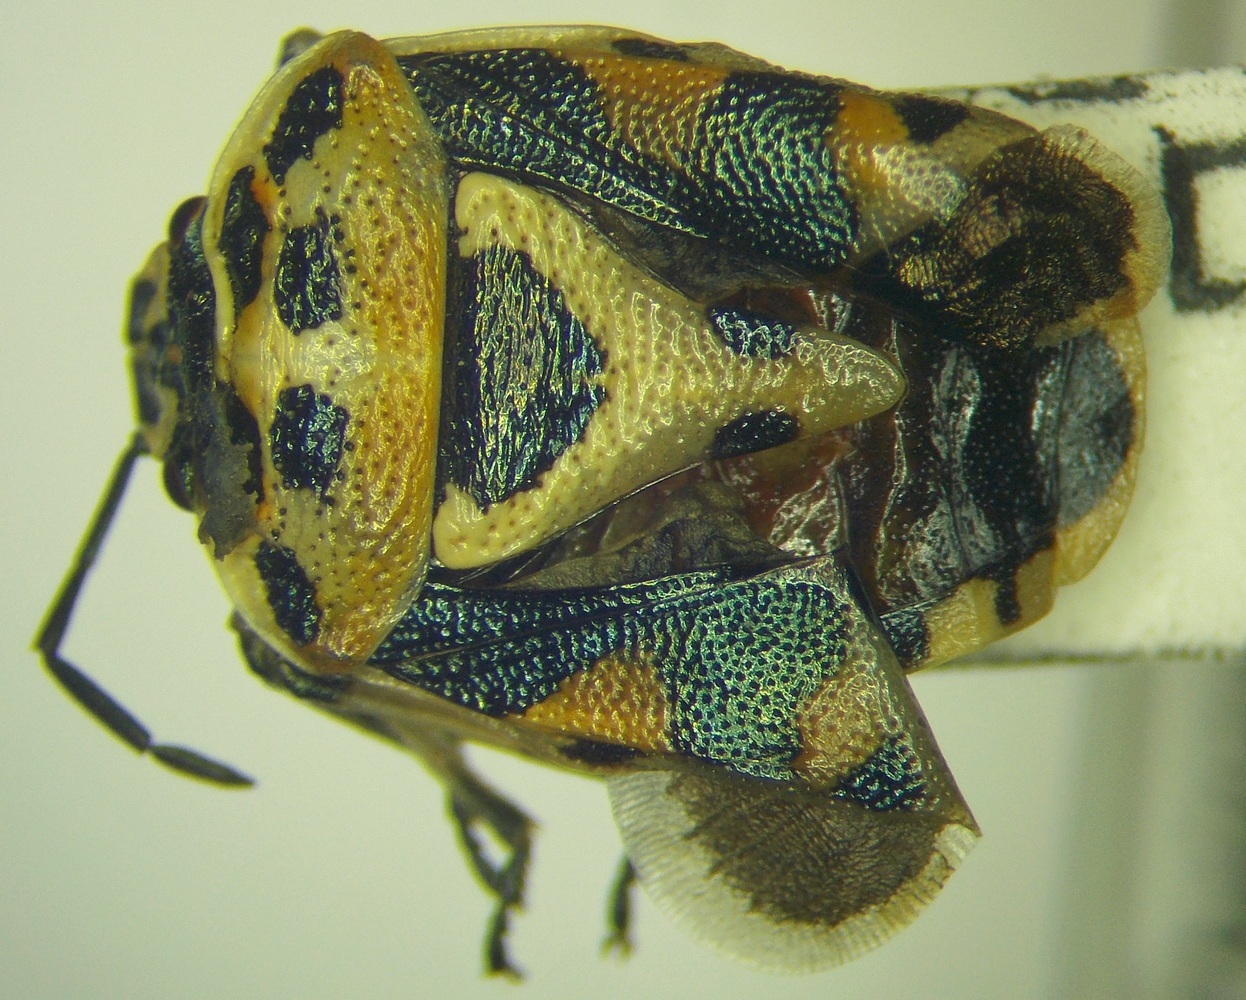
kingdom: Animalia
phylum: Arthropoda
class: Insecta
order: Hemiptera
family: Pentatomidae
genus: Eurydema
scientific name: Eurydema ornata
